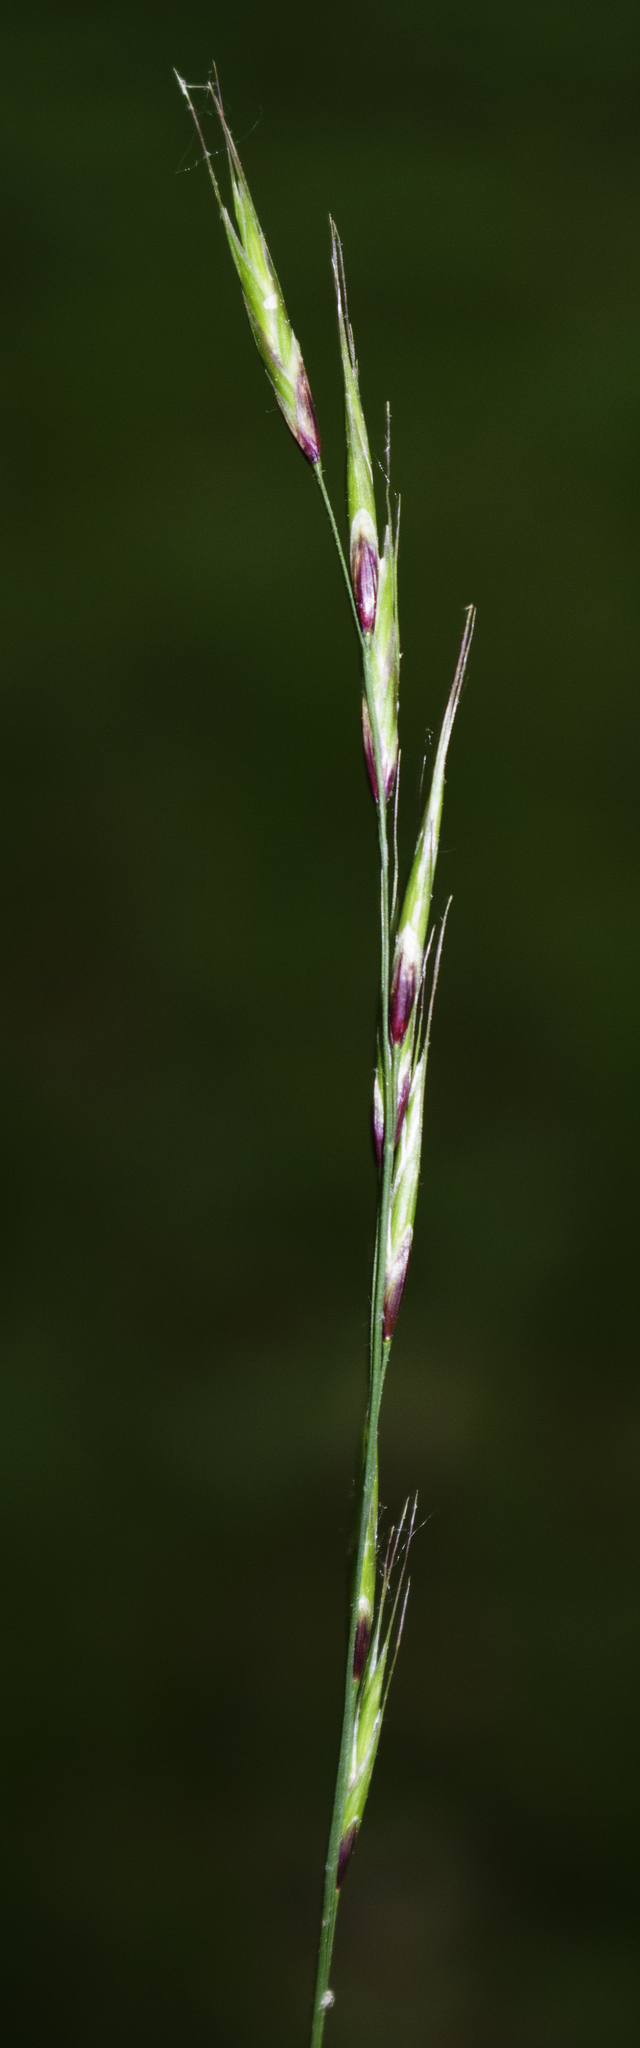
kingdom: Plantae
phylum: Tracheophyta
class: Liliopsida
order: Poales
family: Poaceae
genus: Schizachne
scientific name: Schizachne purpurascens
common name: False melic
